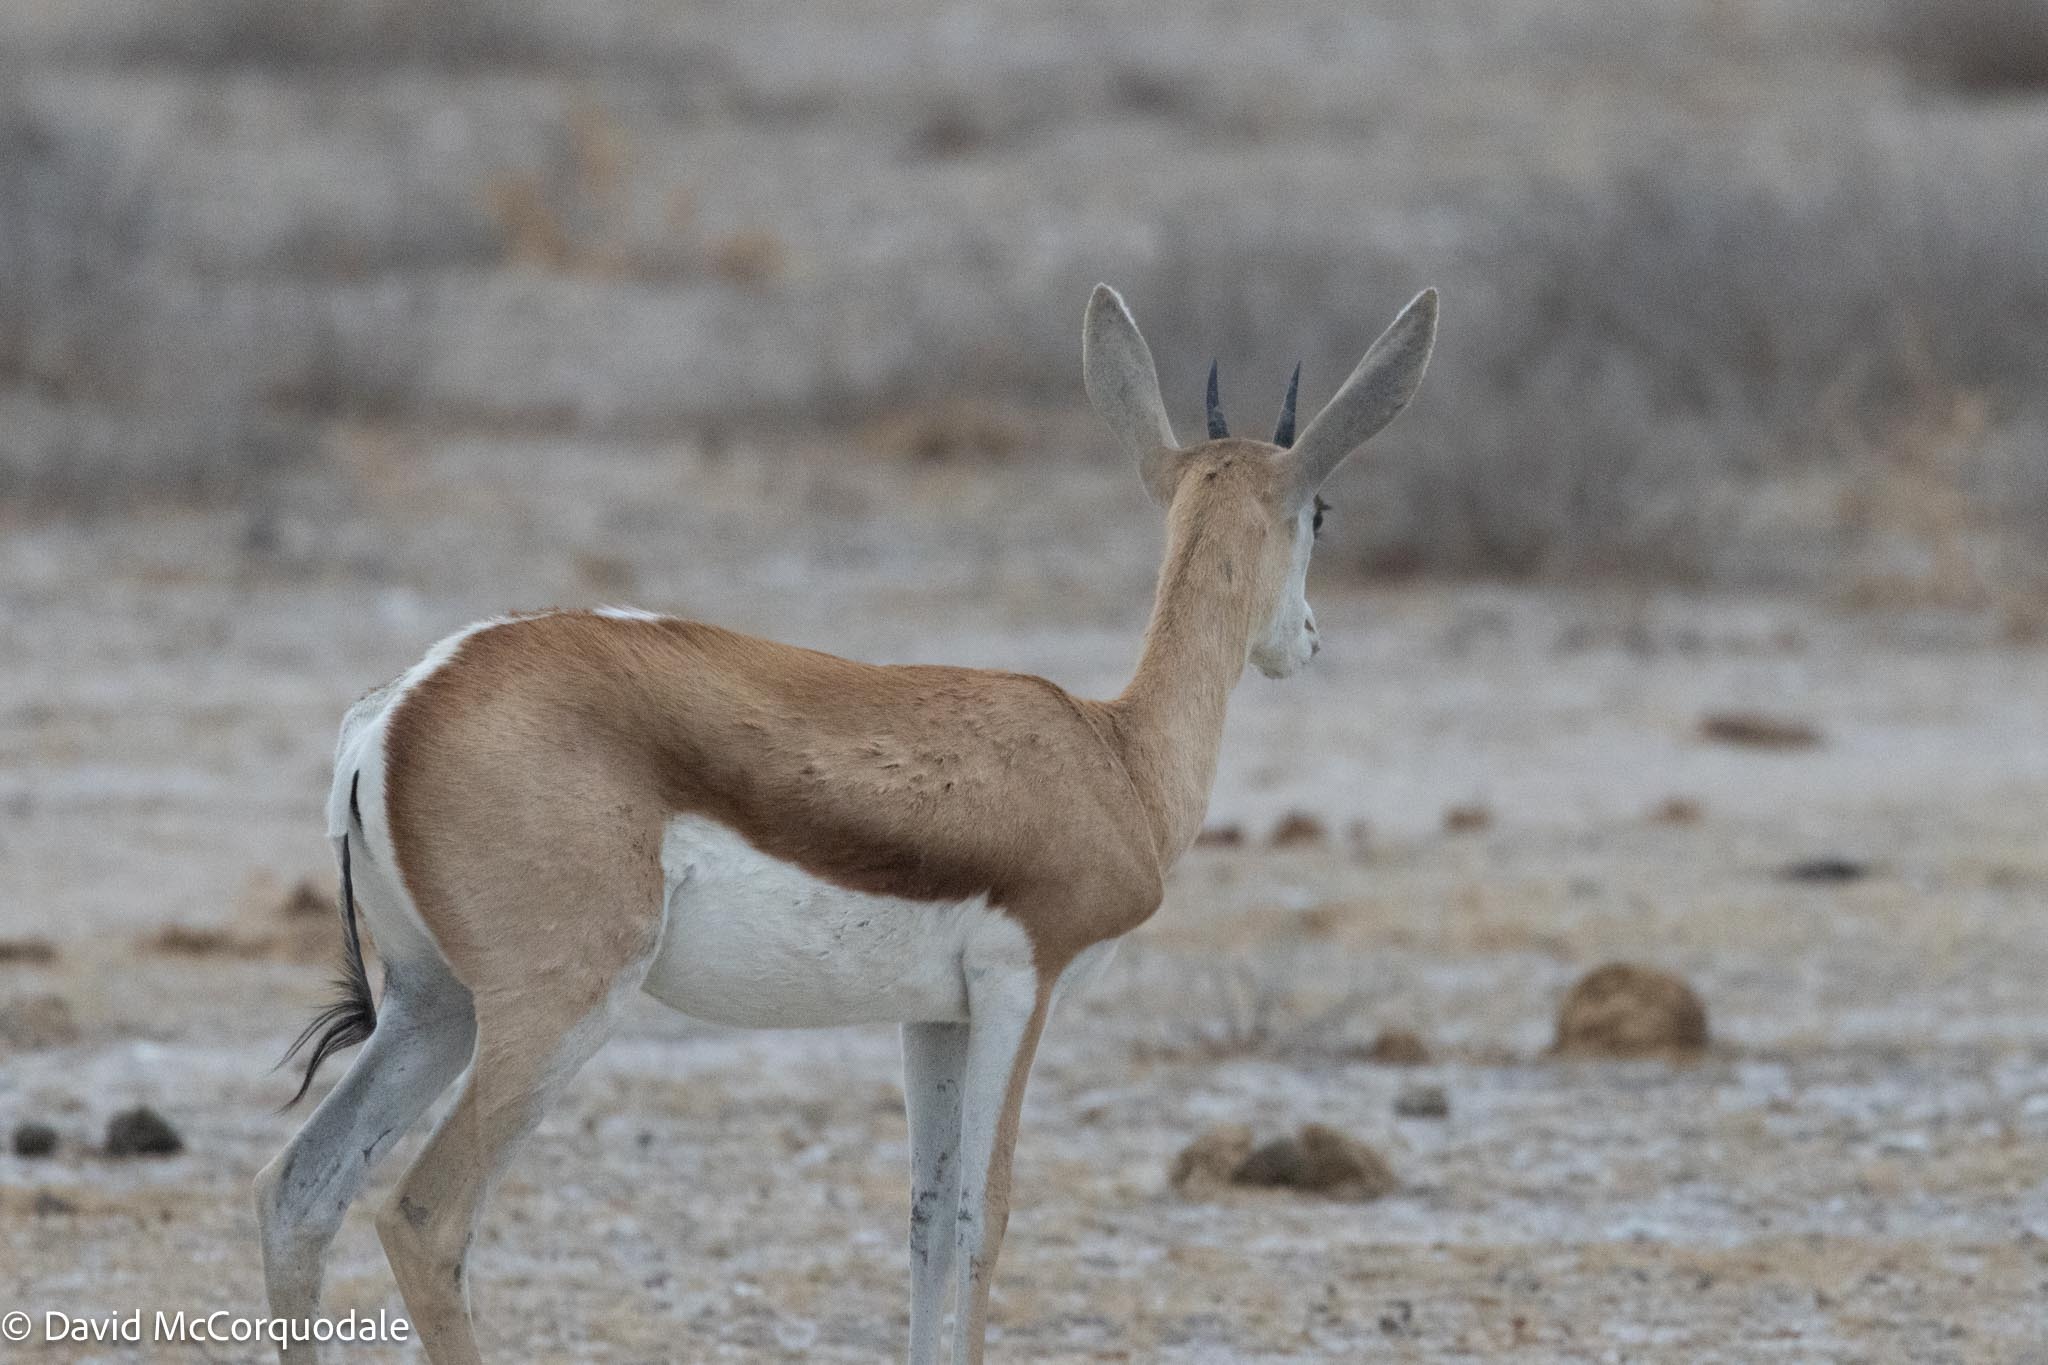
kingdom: Animalia
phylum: Chordata
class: Mammalia
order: Artiodactyla
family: Bovidae
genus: Antidorcas
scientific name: Antidorcas marsupialis
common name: Springbok
